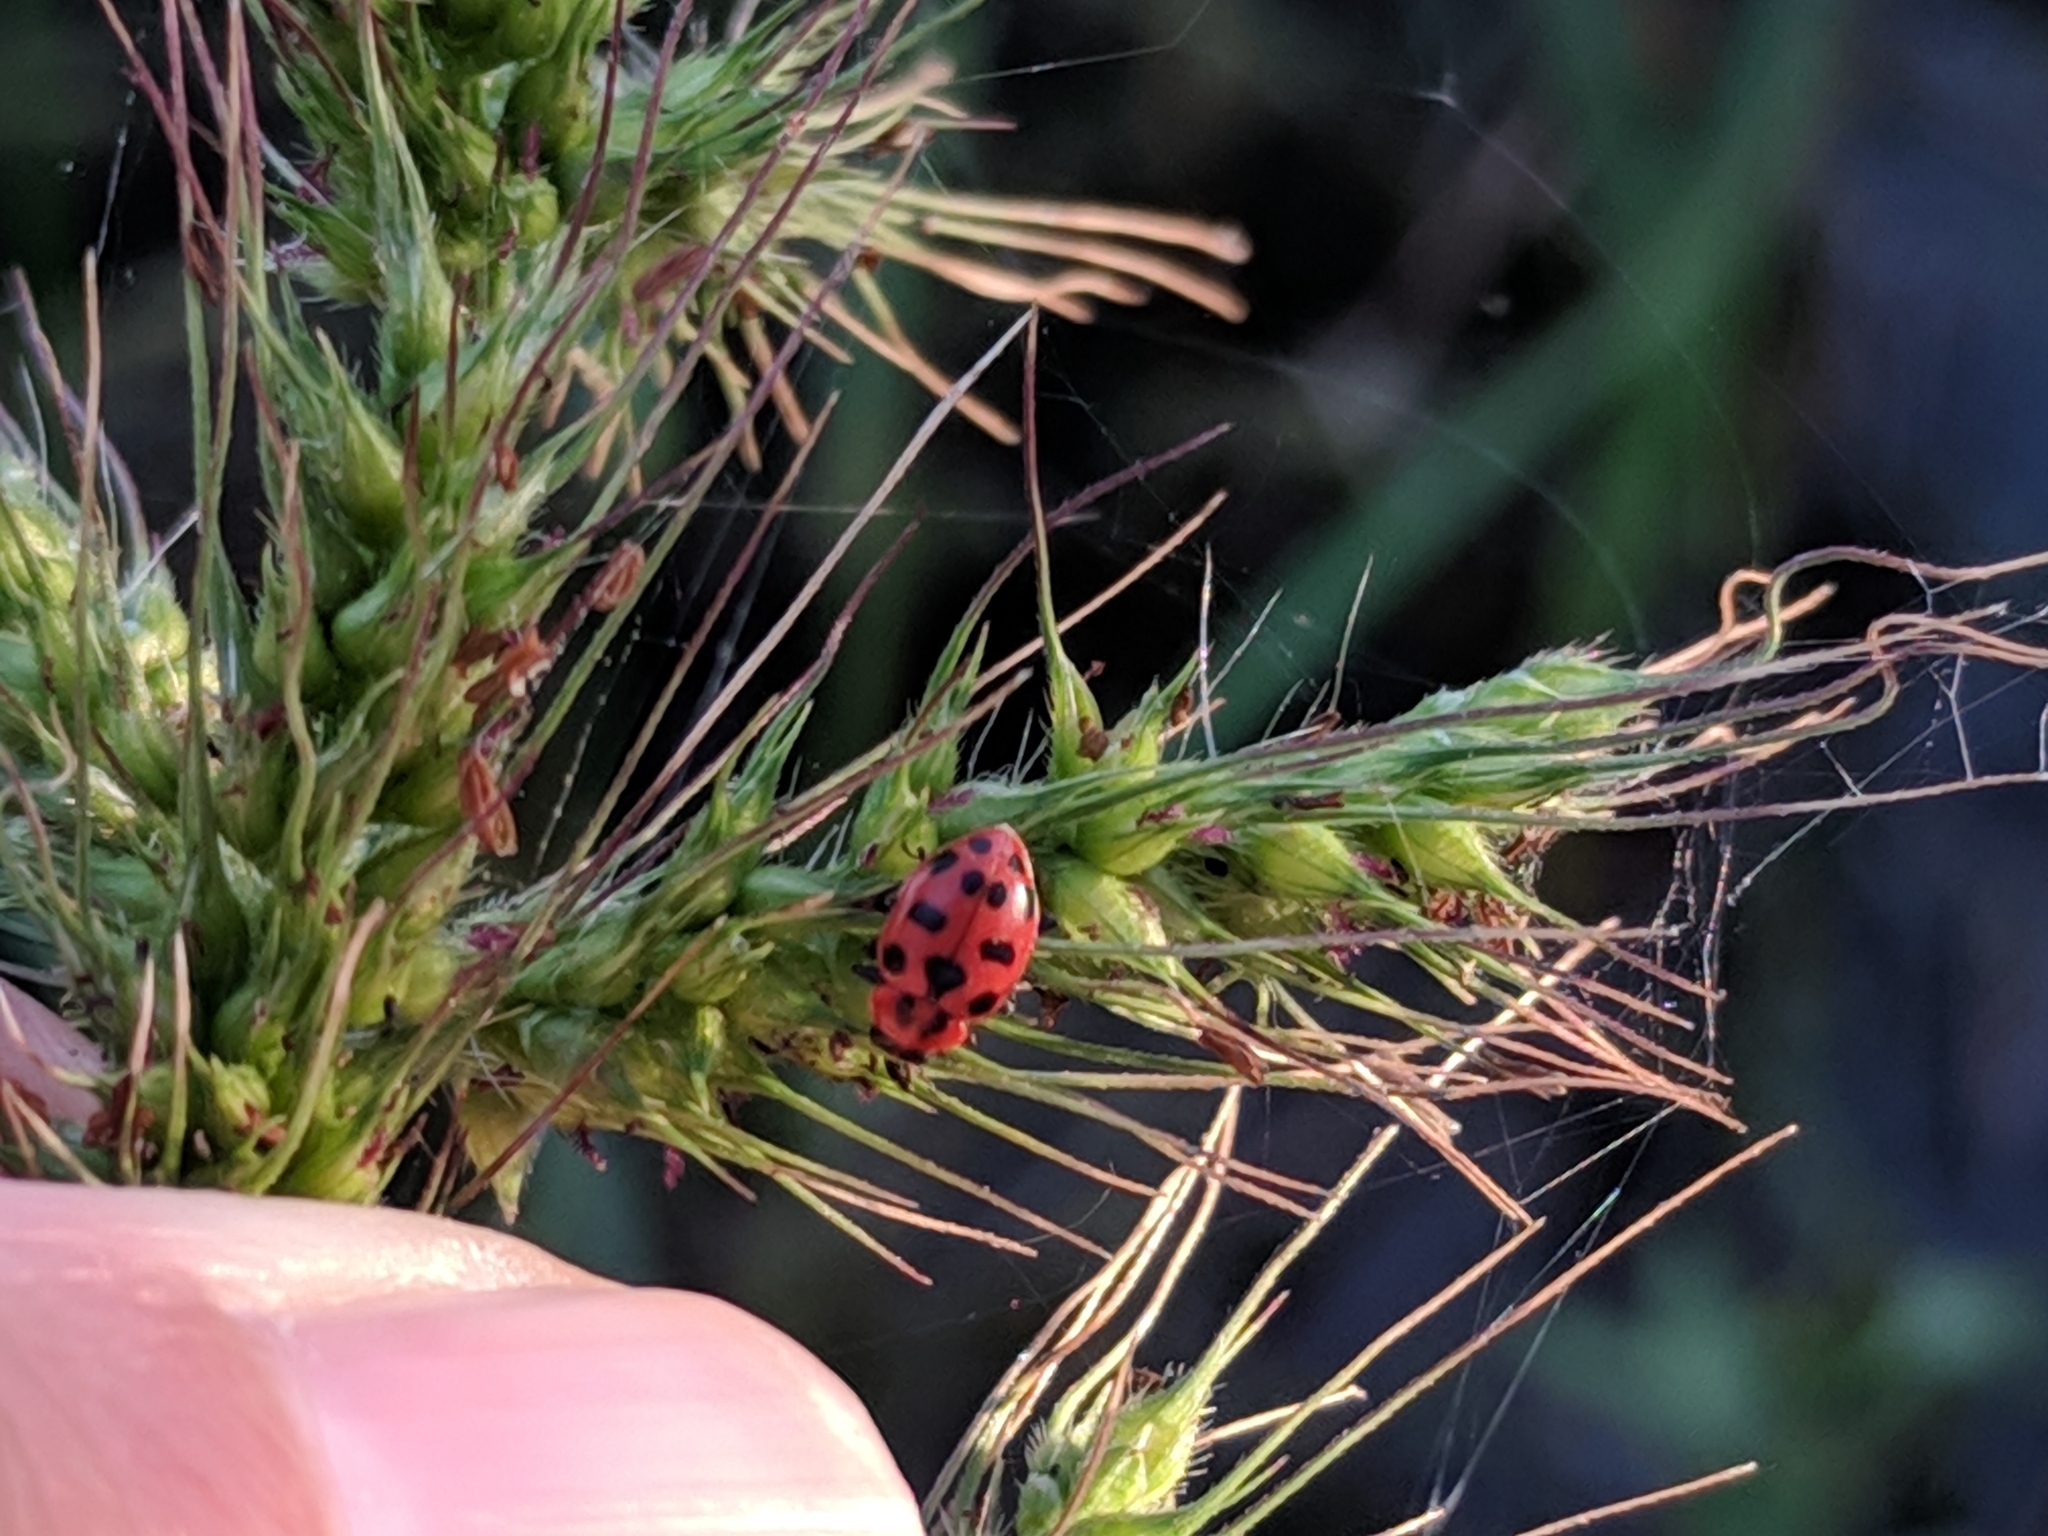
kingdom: Animalia
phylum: Arthropoda
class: Insecta
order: Coleoptera
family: Coccinellidae
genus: Coleomegilla
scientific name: Coleomegilla maculata
